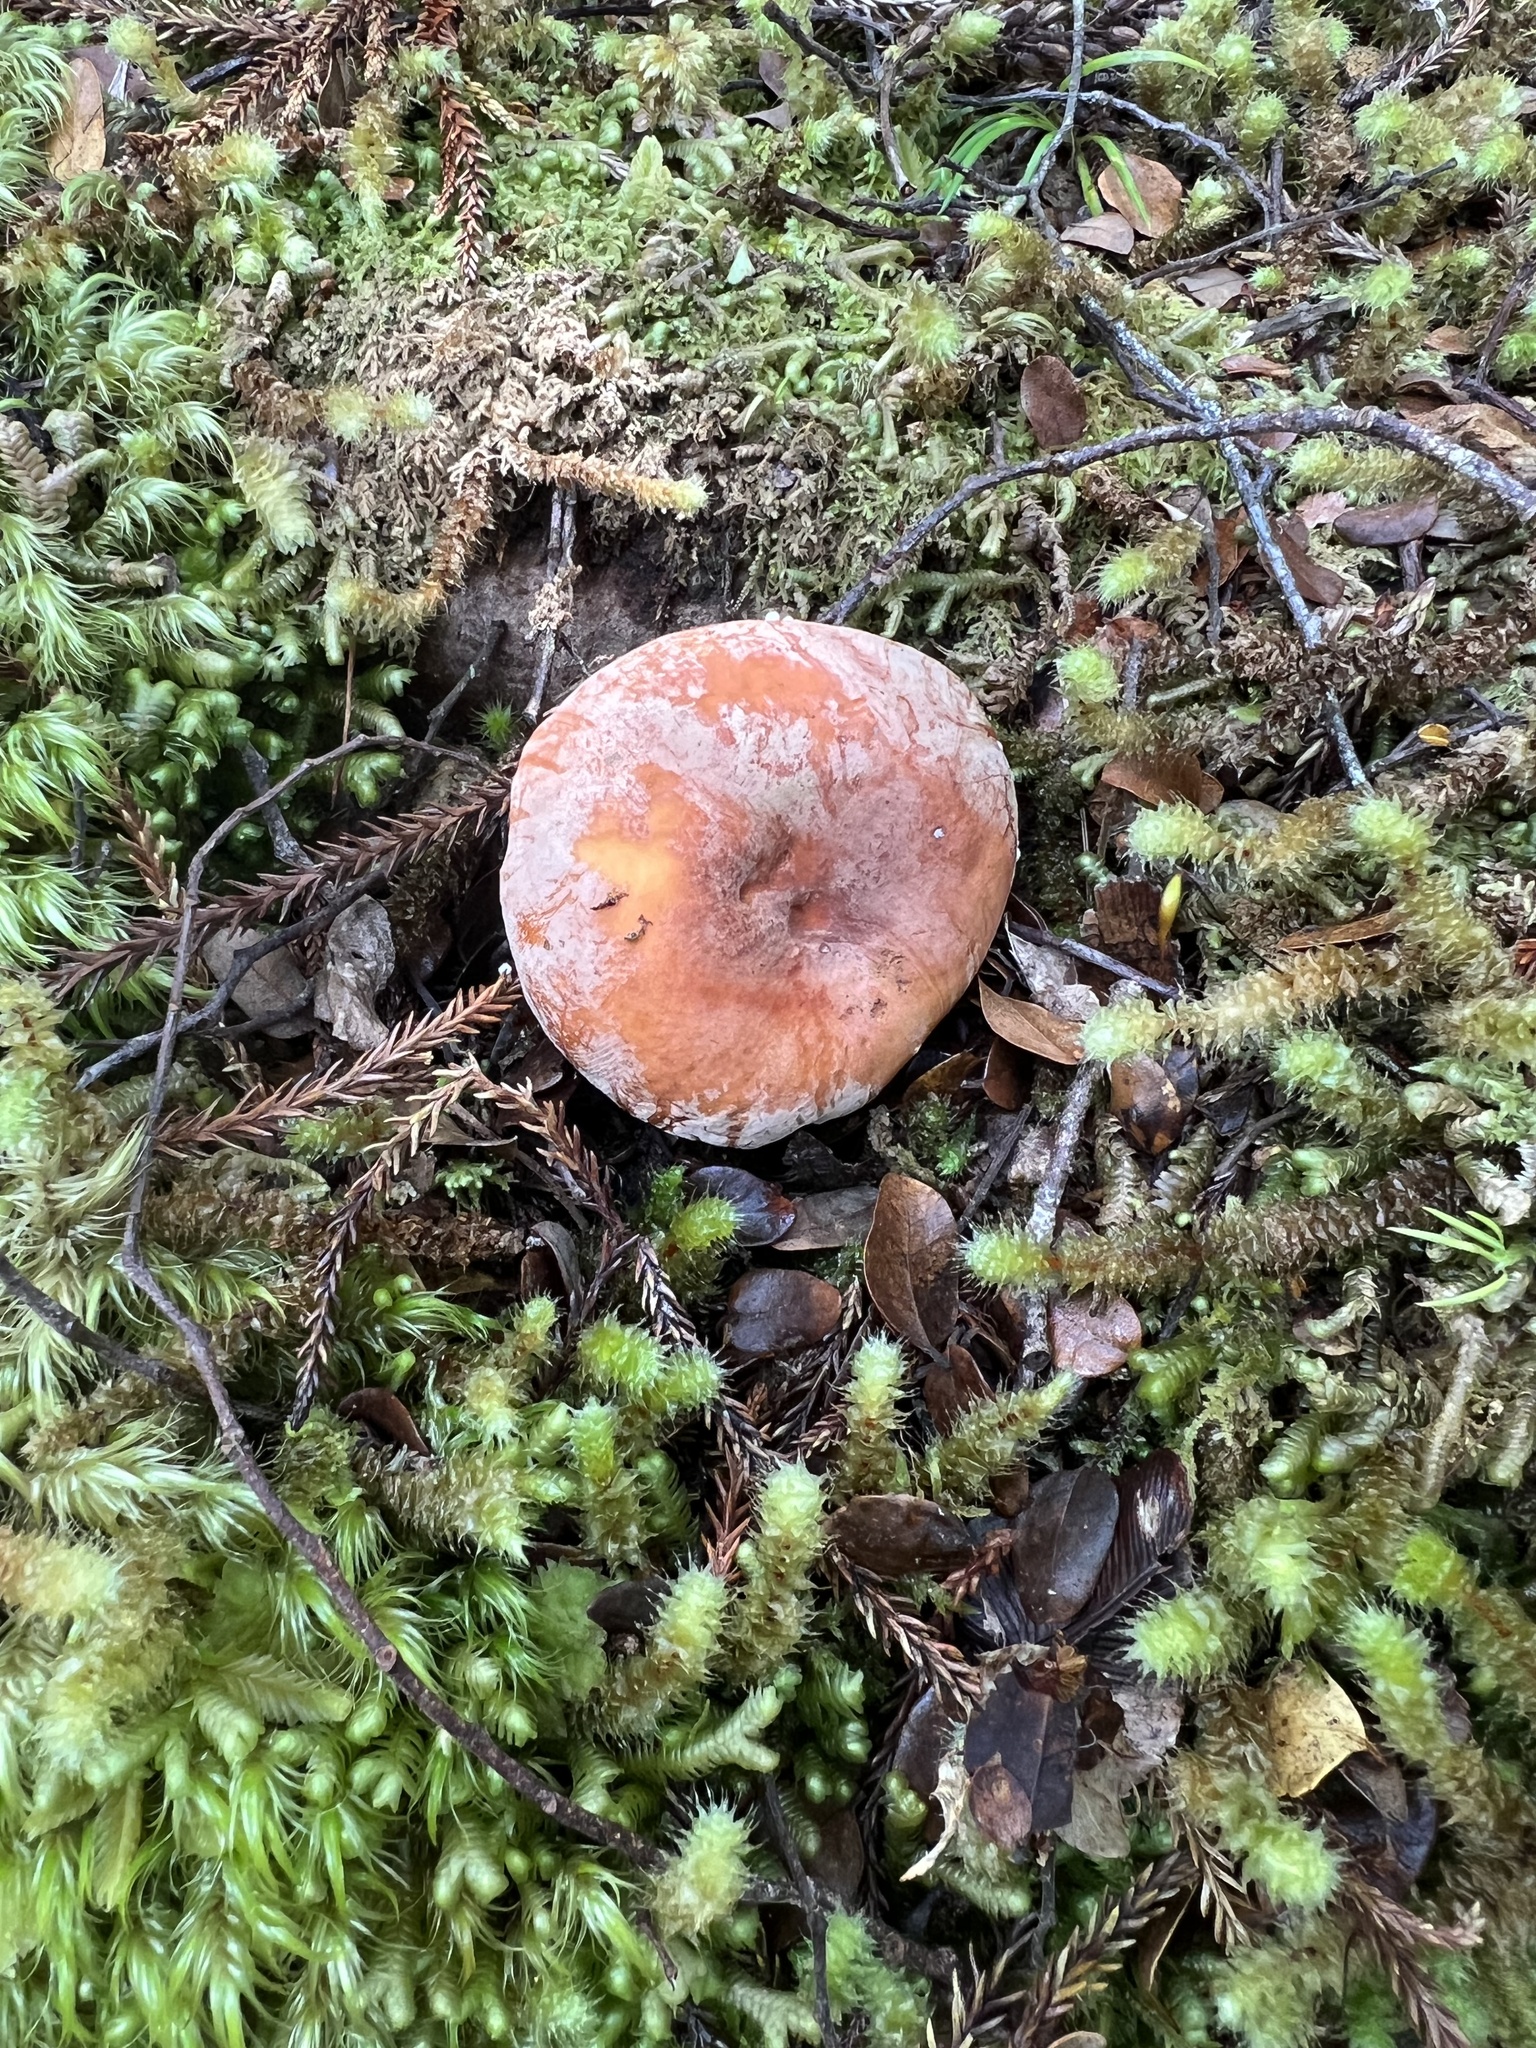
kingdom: Fungi
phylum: Basidiomycota
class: Agaricomycetes
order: Russulales
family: Russulaceae
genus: Lactifluus
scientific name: Lactifluus aurantioruber
